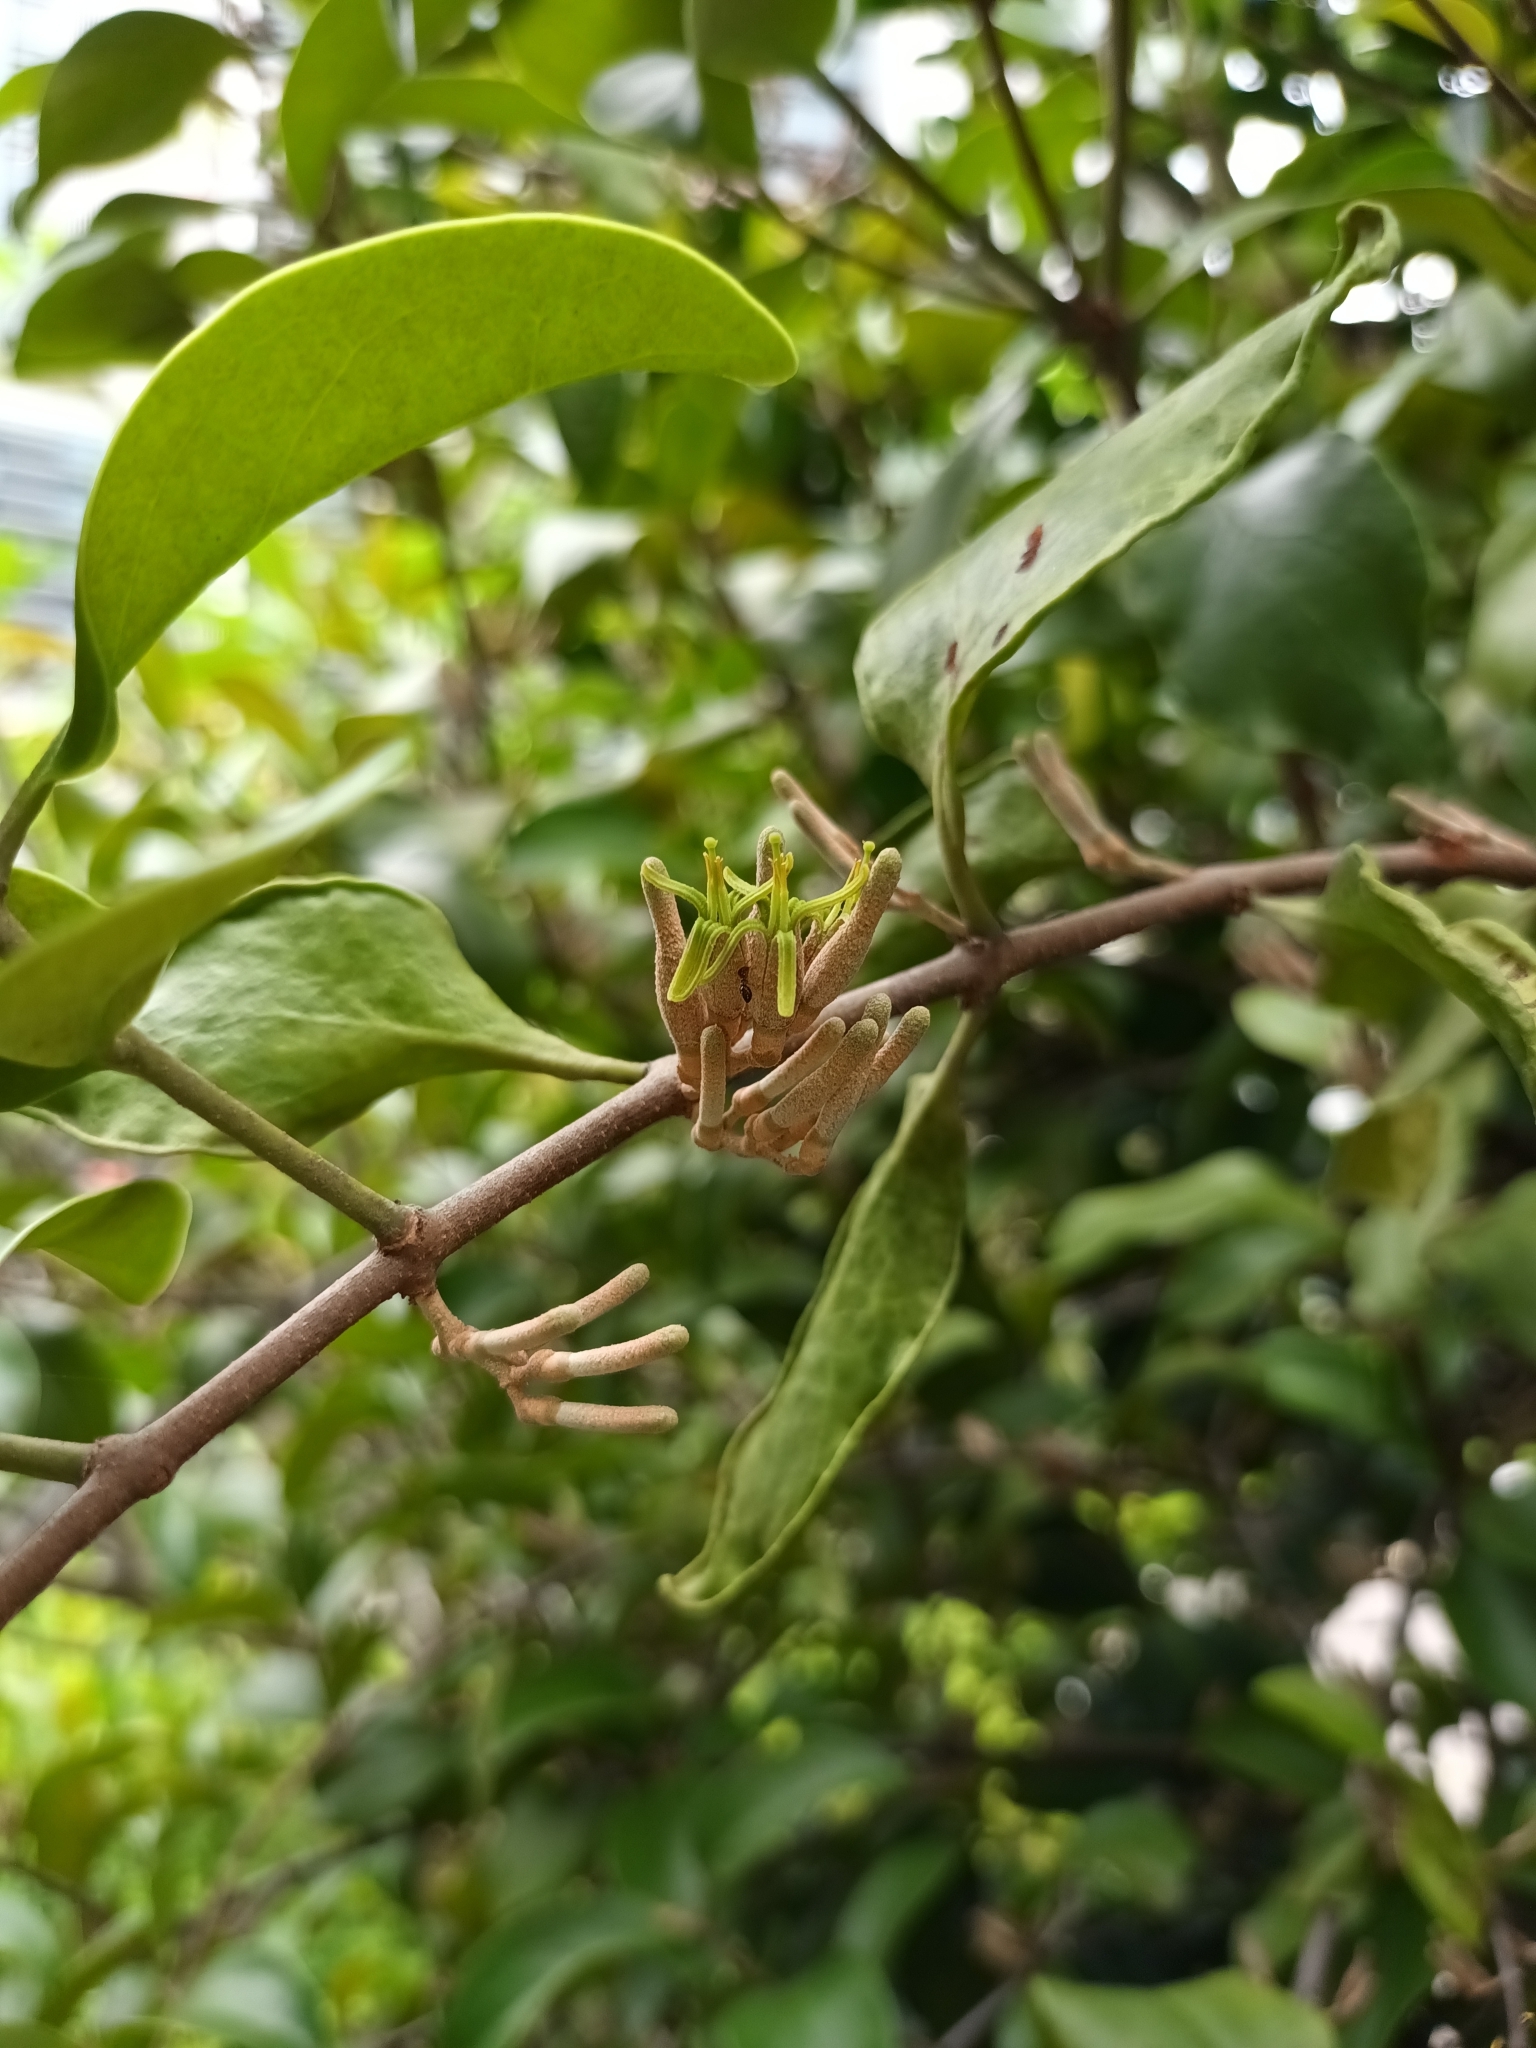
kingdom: Plantae
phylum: Tracheophyta
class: Magnoliopsida
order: Santalales
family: Loranthaceae
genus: Dendrophthoe
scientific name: Dendrophthoe pentandra
